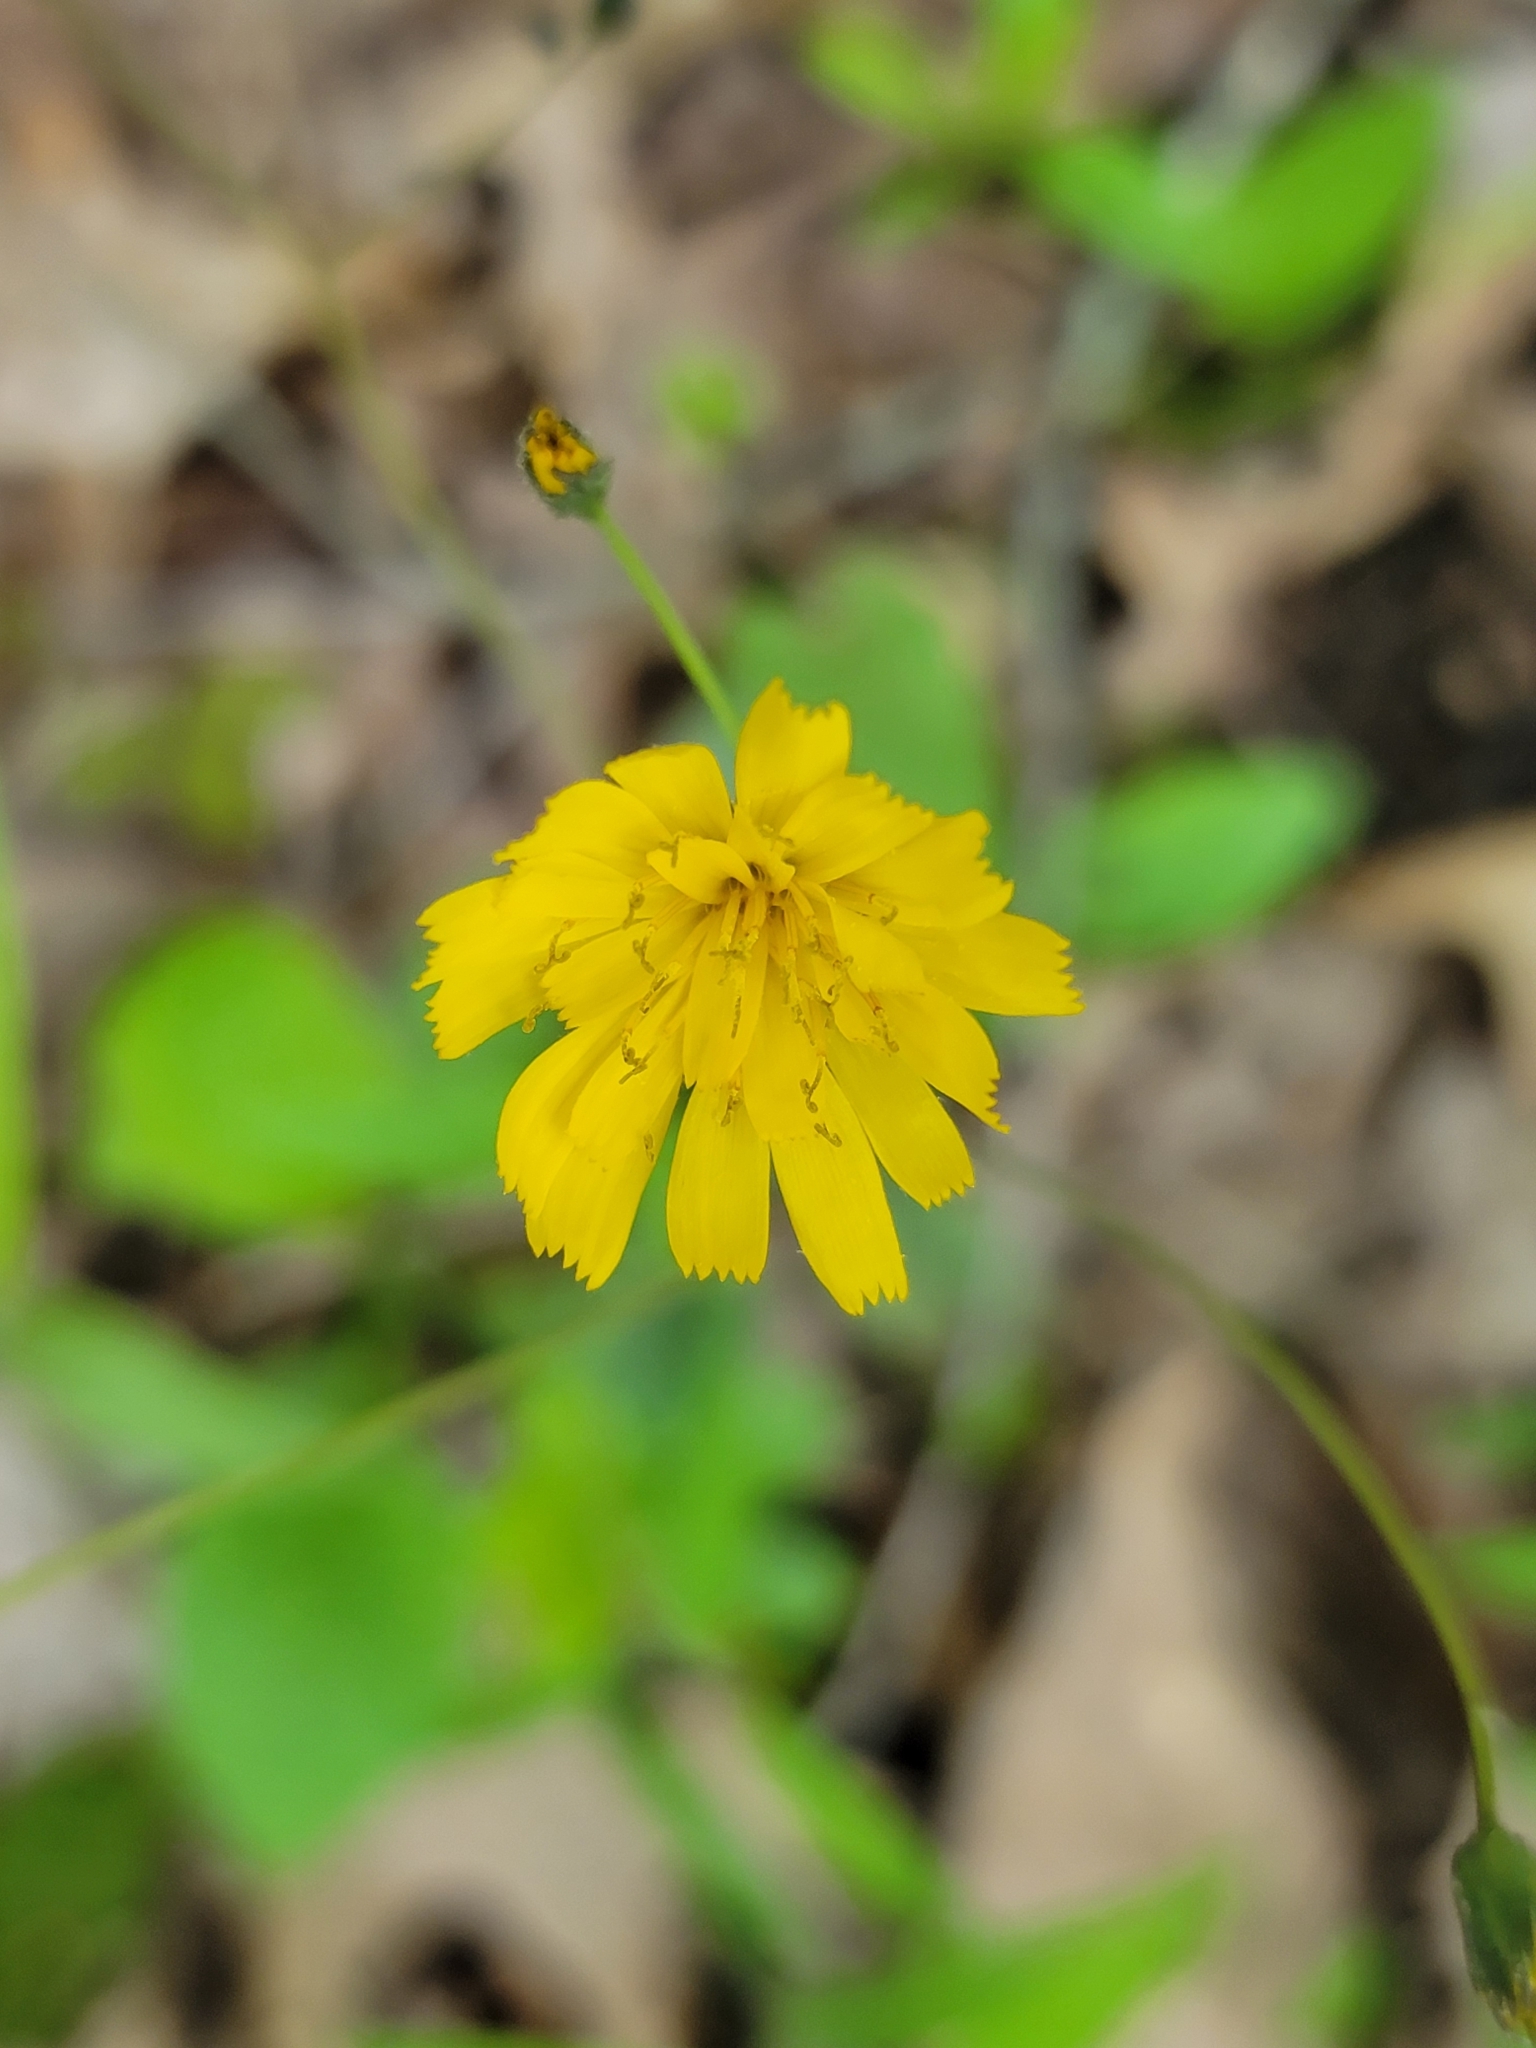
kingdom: Plantae
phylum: Tracheophyta
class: Magnoliopsida
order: Asterales
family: Asteraceae
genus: Hieracium
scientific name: Hieracium venosum
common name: Rattlesnake hawkweed
